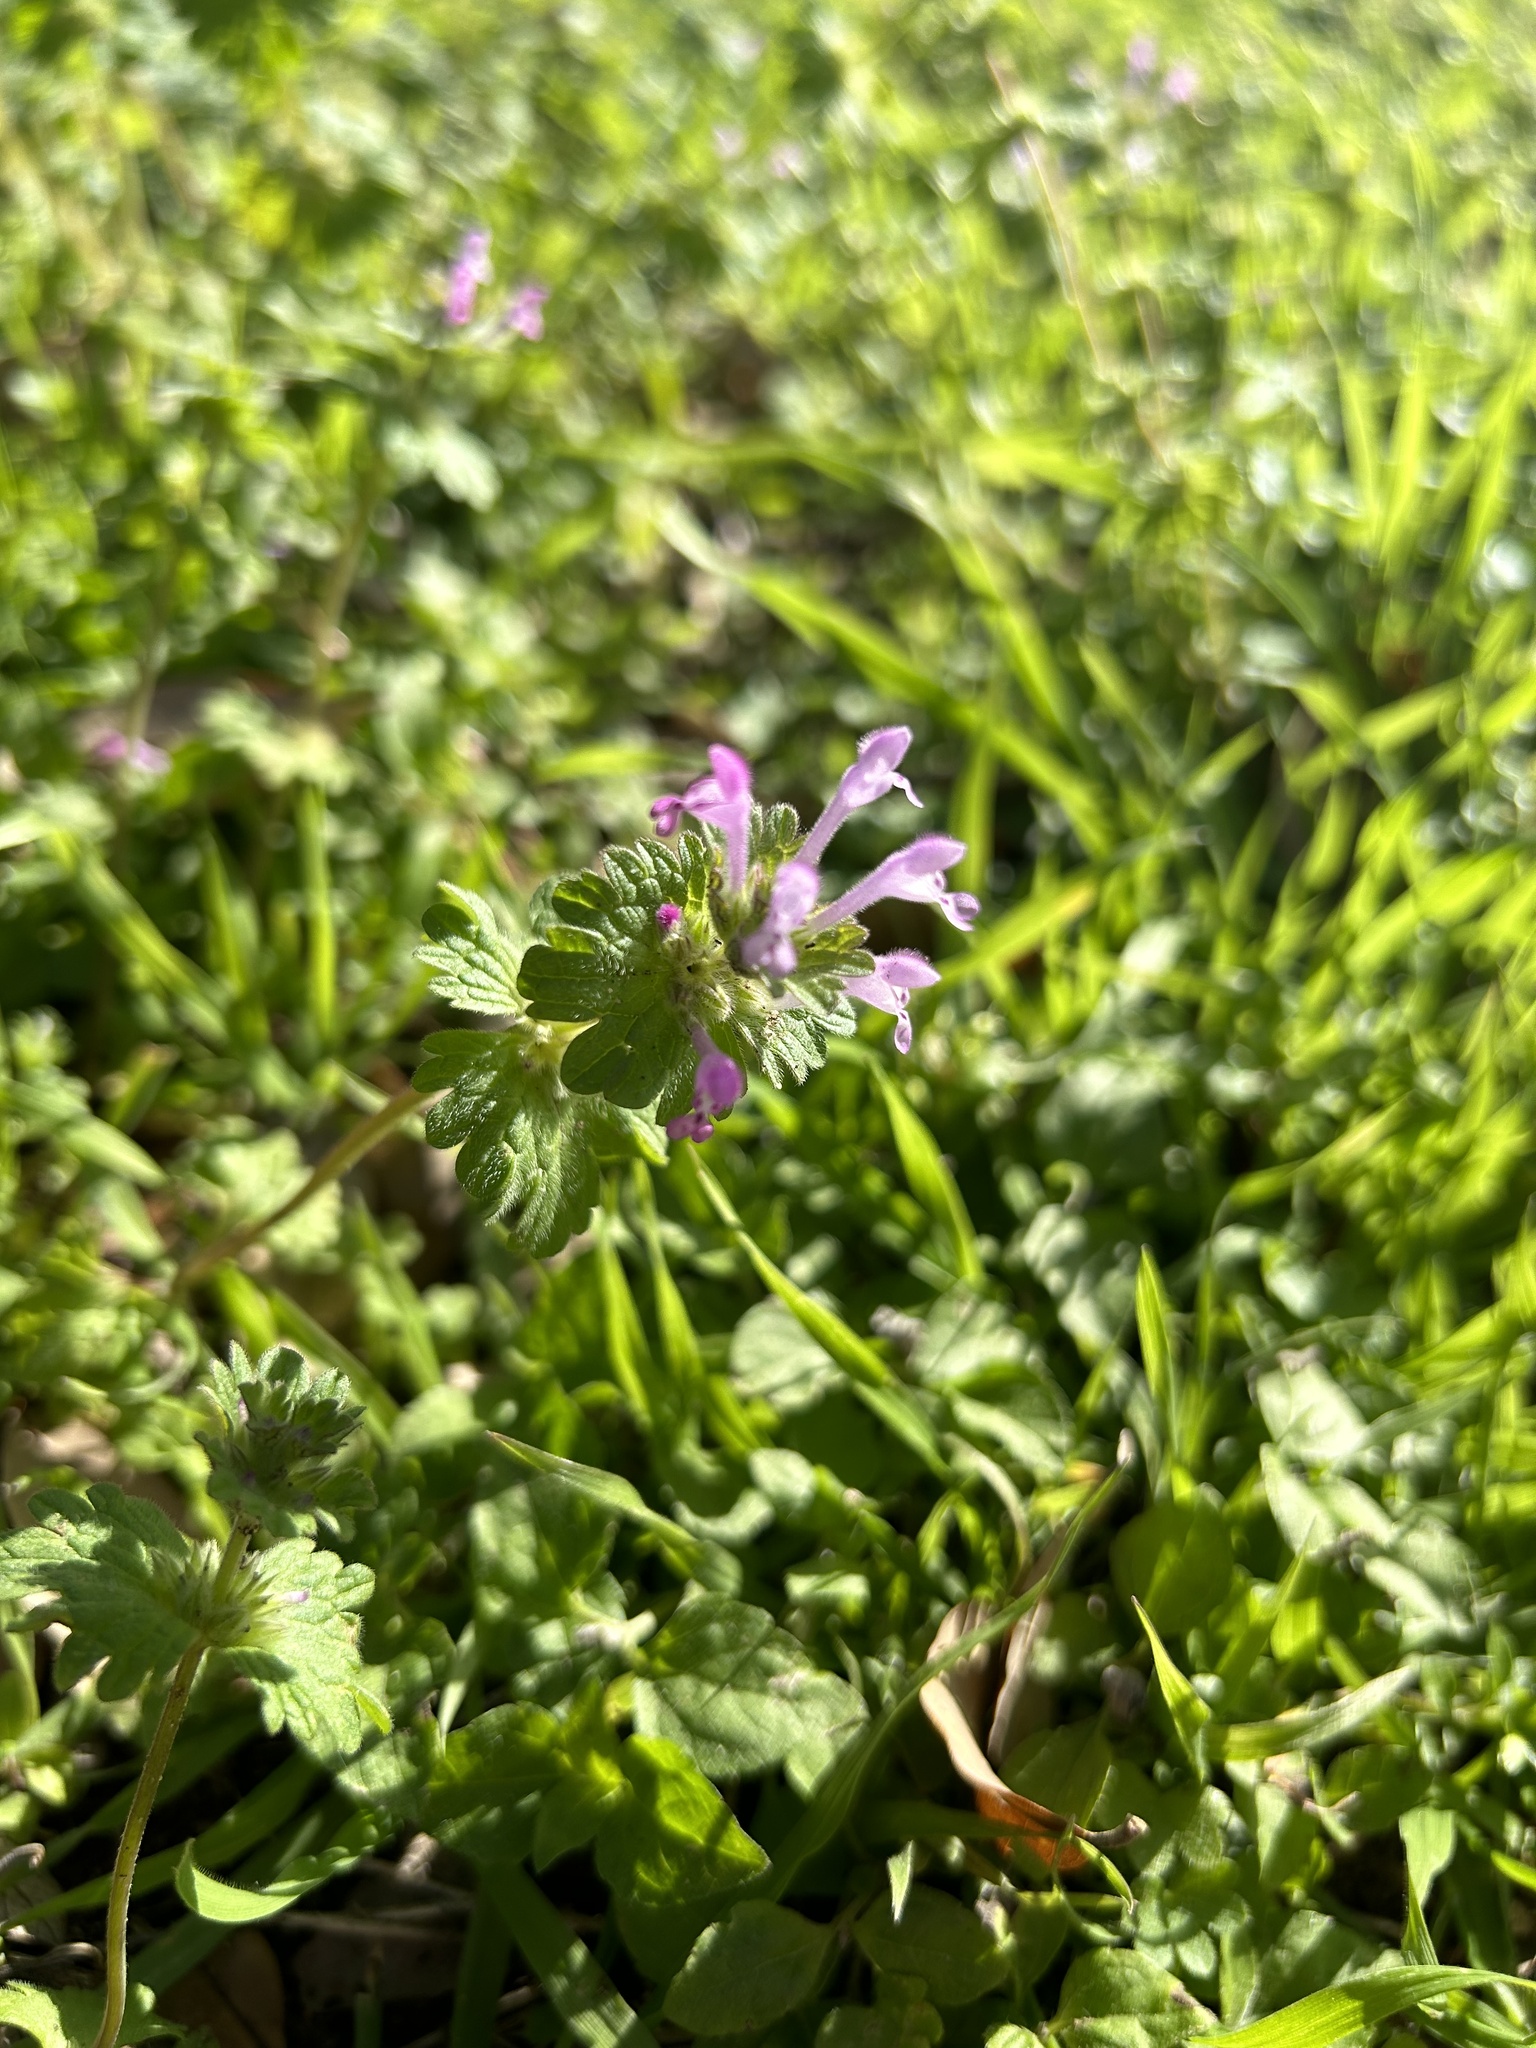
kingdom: Plantae
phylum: Tracheophyta
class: Magnoliopsida
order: Lamiales
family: Lamiaceae
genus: Lamium
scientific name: Lamium amplexicaule
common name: Henbit dead-nettle
